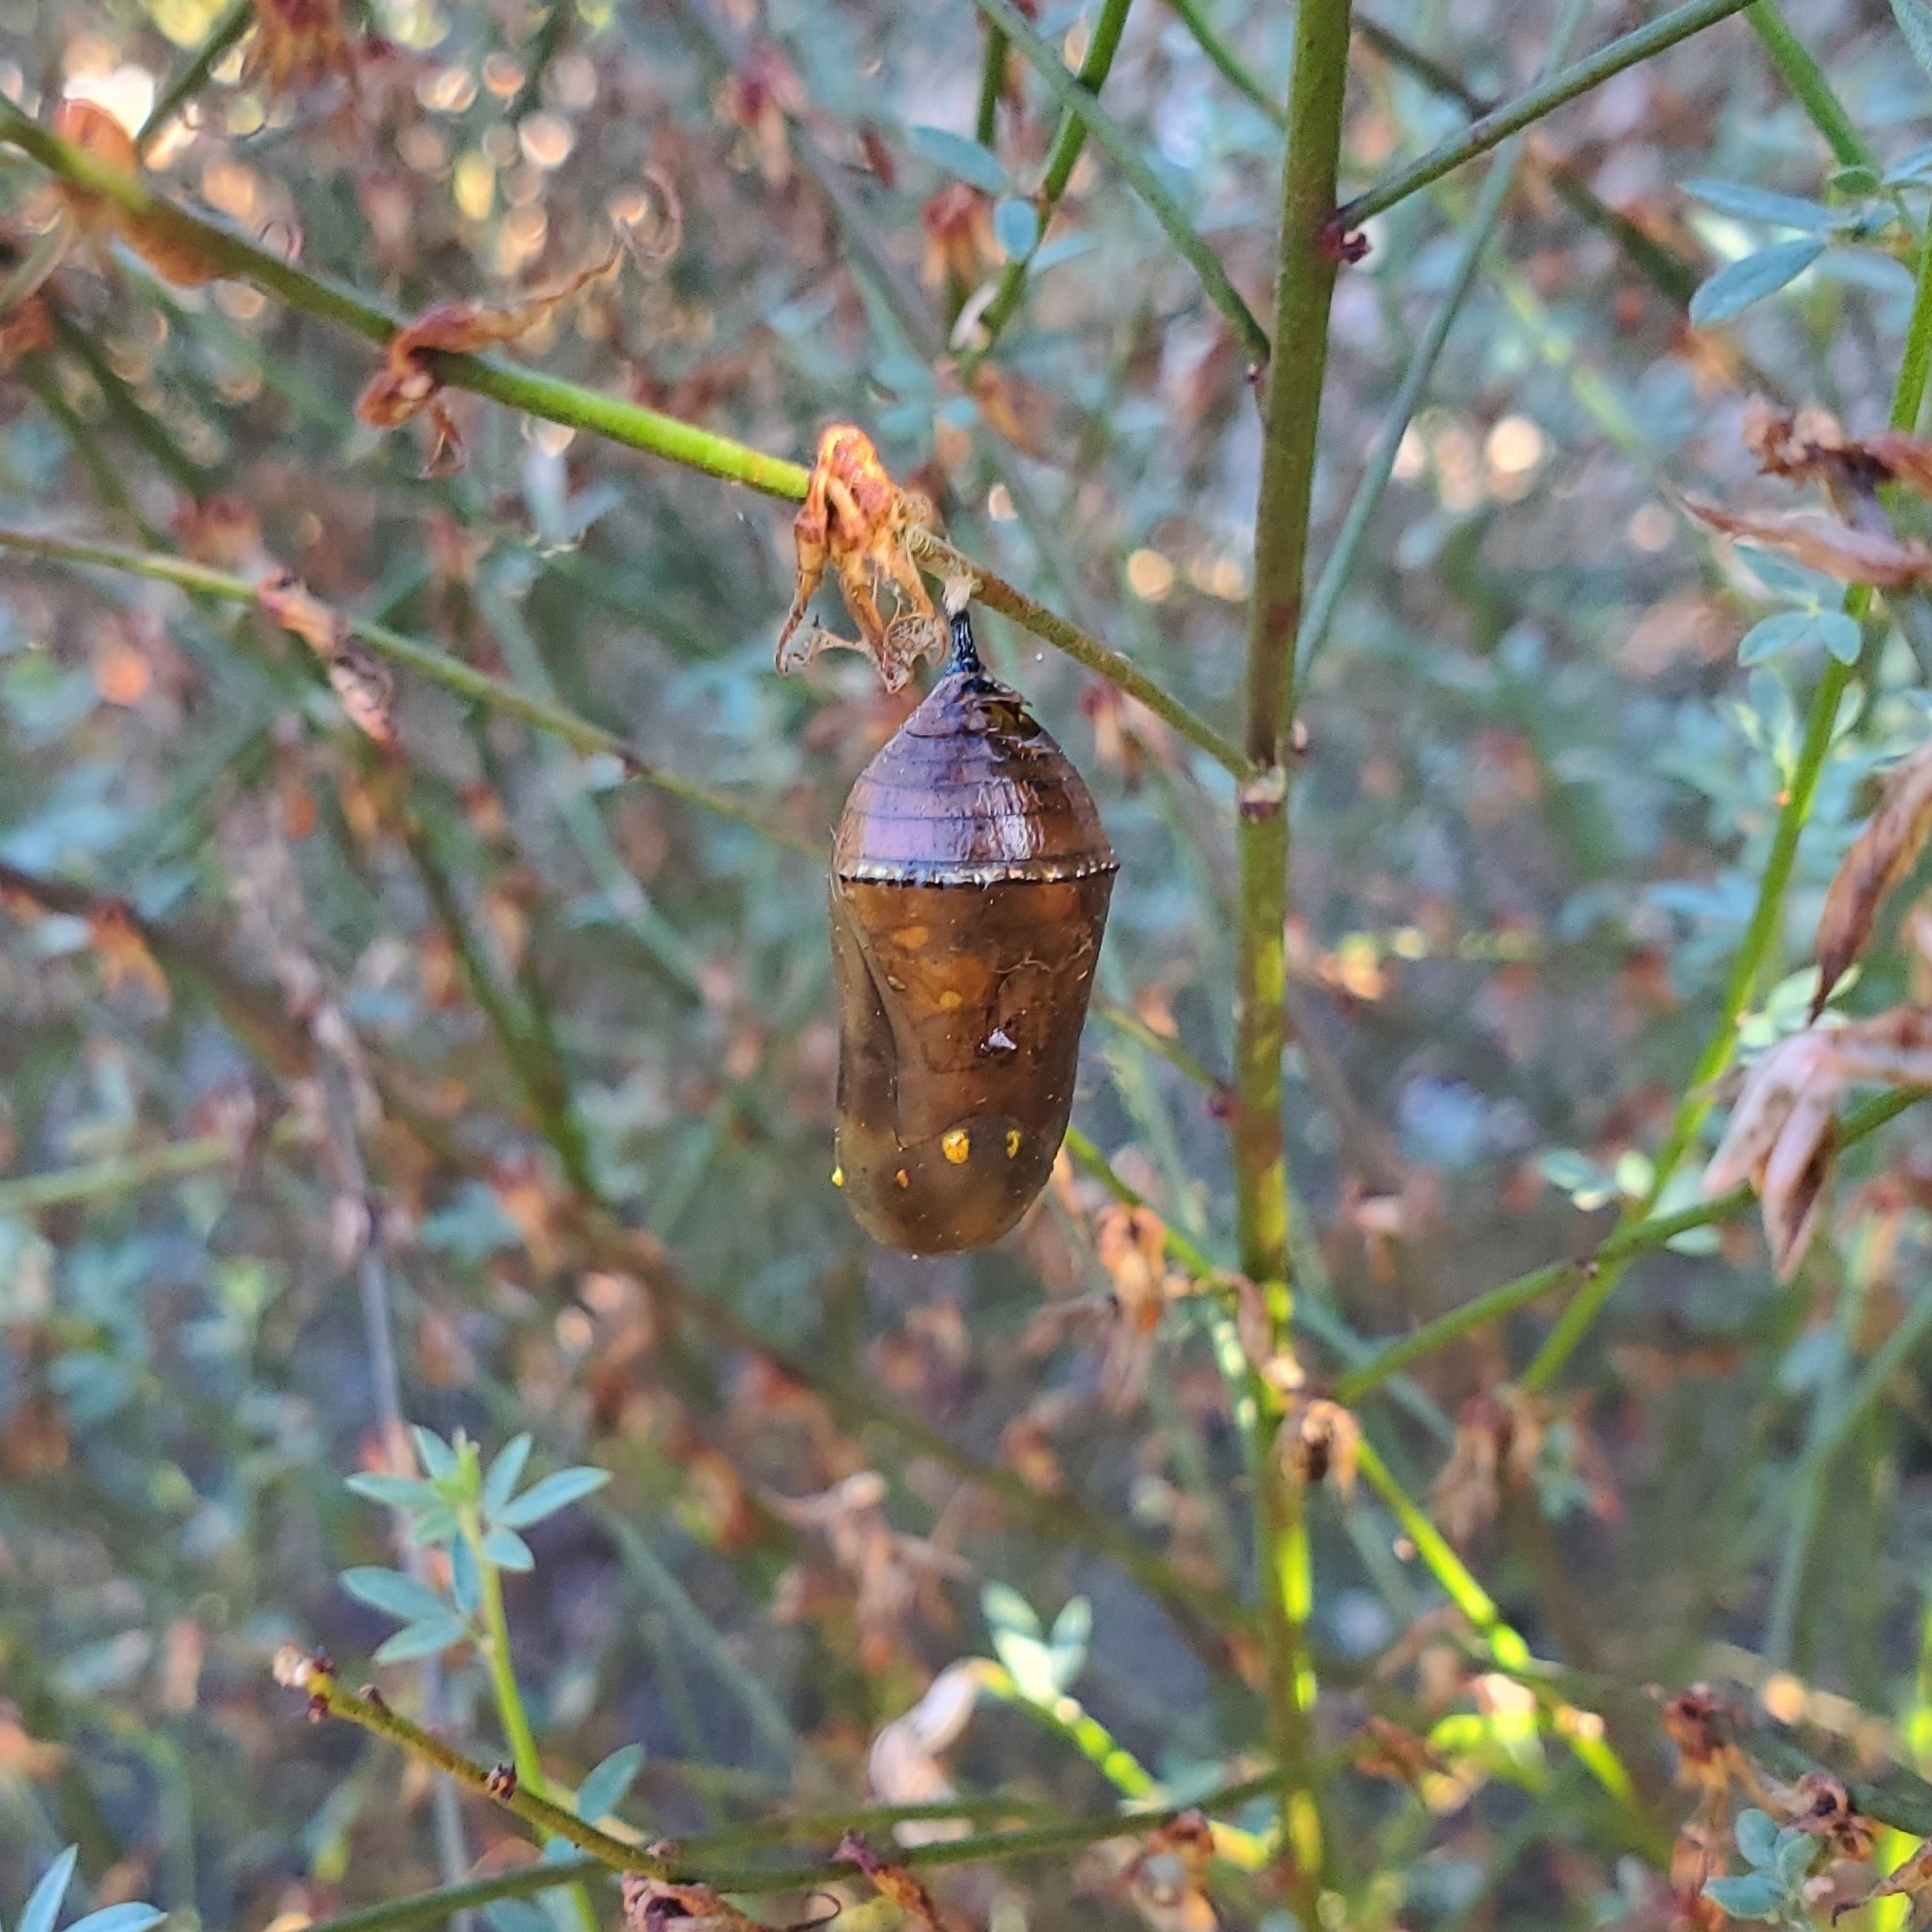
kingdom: Animalia
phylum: Arthropoda
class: Insecta
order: Lepidoptera
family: Nymphalidae
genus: Danaus
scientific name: Danaus plexippus
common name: Monarch
